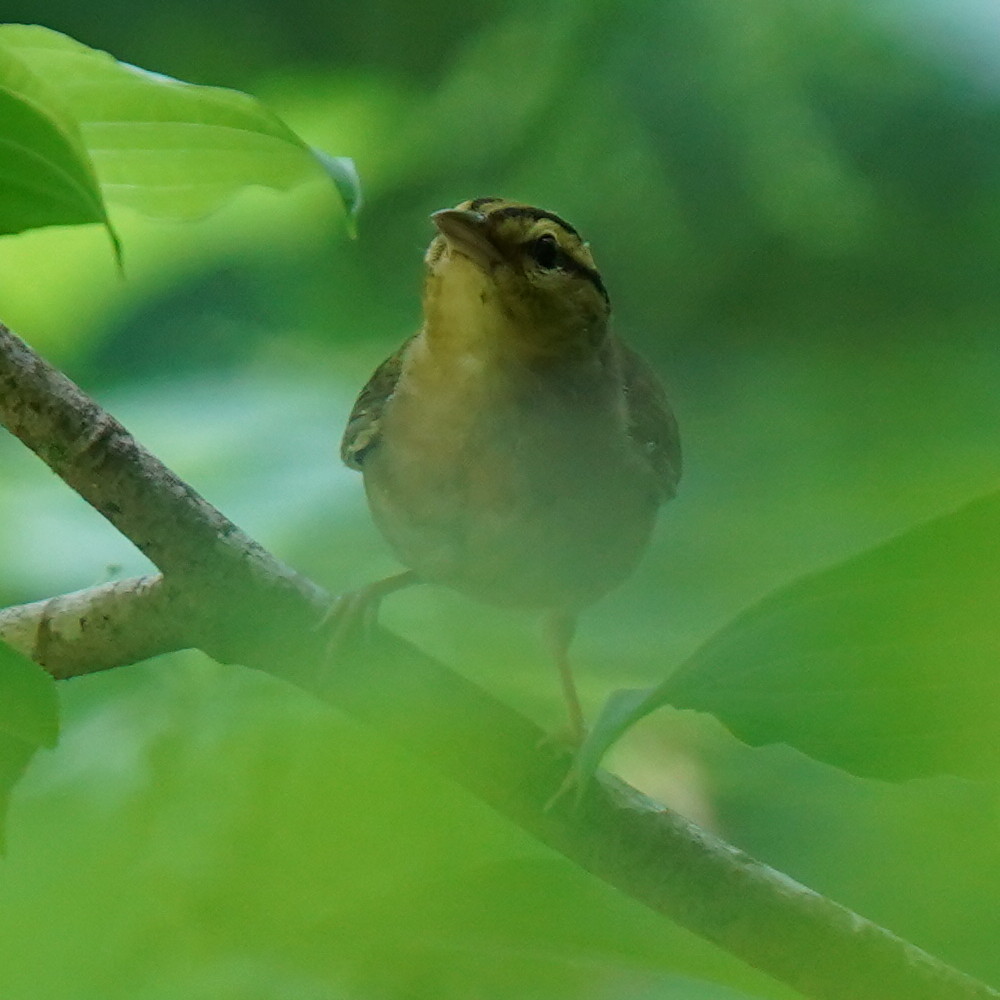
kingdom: Animalia
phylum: Chordata
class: Aves
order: Passeriformes
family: Parulidae
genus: Helmitheros
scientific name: Helmitheros vermivorum
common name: Worm-eating warbler
